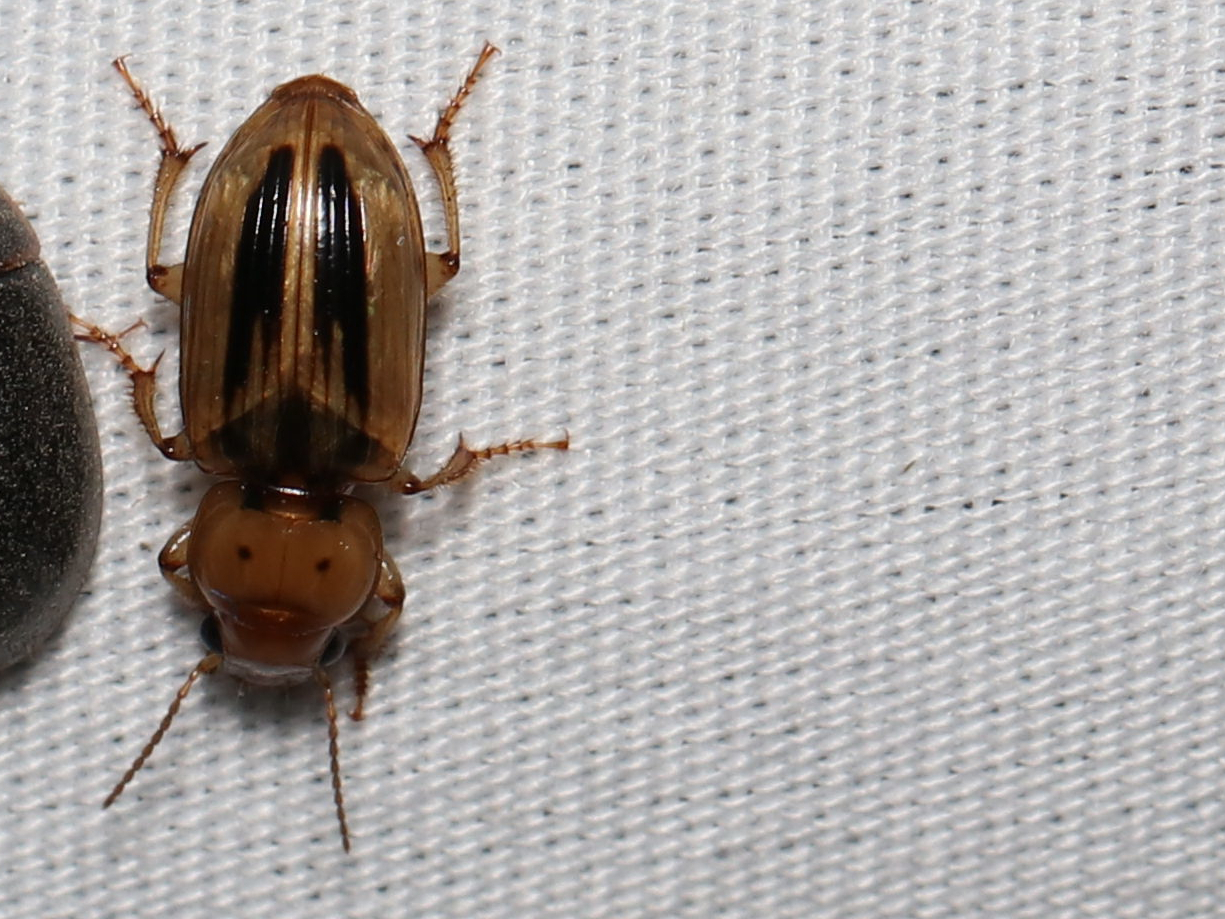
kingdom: Animalia
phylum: Arthropoda
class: Insecta
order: Coleoptera
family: Carabidae
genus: Stenolophus
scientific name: Stenolophus lineola
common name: Lined stenolophus
